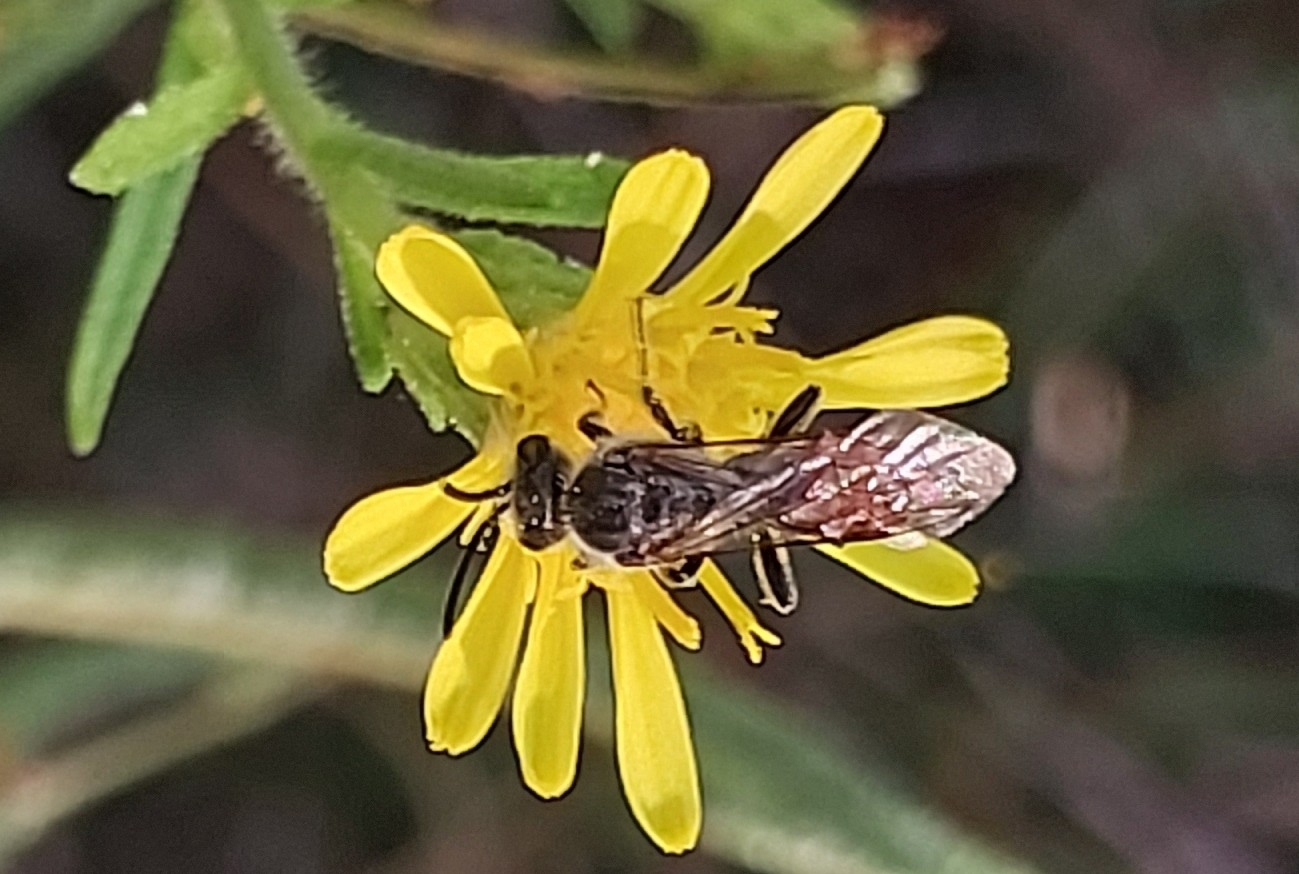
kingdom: Animalia
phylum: Arthropoda
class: Insecta
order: Hymenoptera
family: Scoliidae
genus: Colpa
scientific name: Colpa quinquecincta
